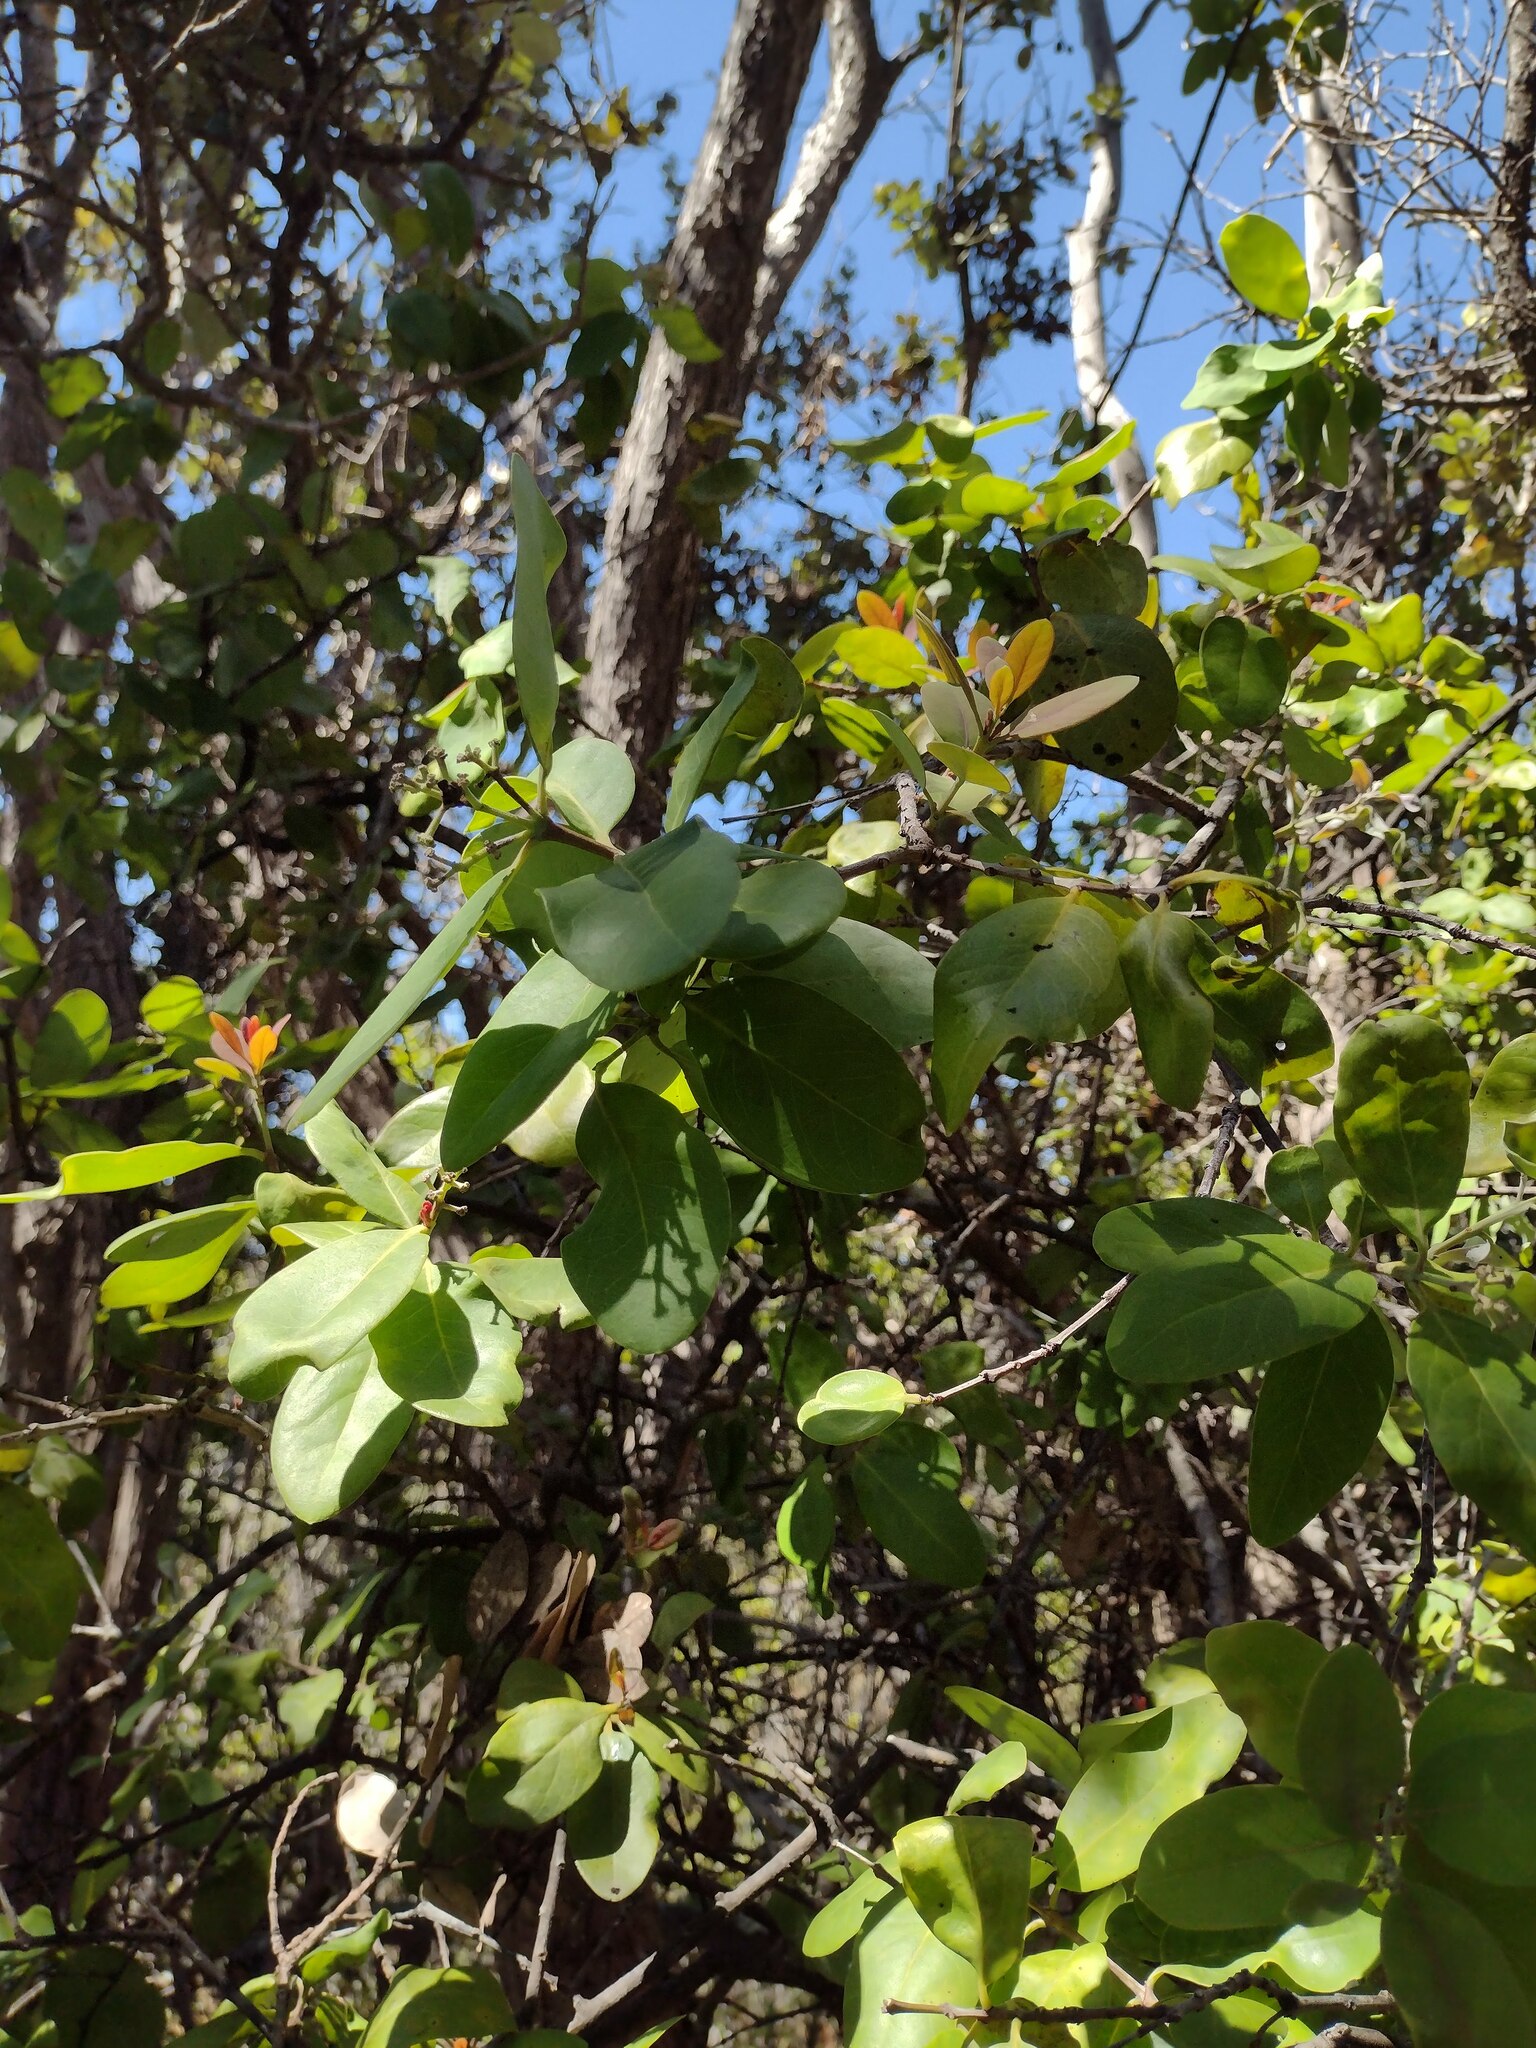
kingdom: Plantae
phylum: Tracheophyta
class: Magnoliopsida
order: Santalales
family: Santalaceae
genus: Santalum
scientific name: Santalum ellipticum
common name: Coast sandalwood
